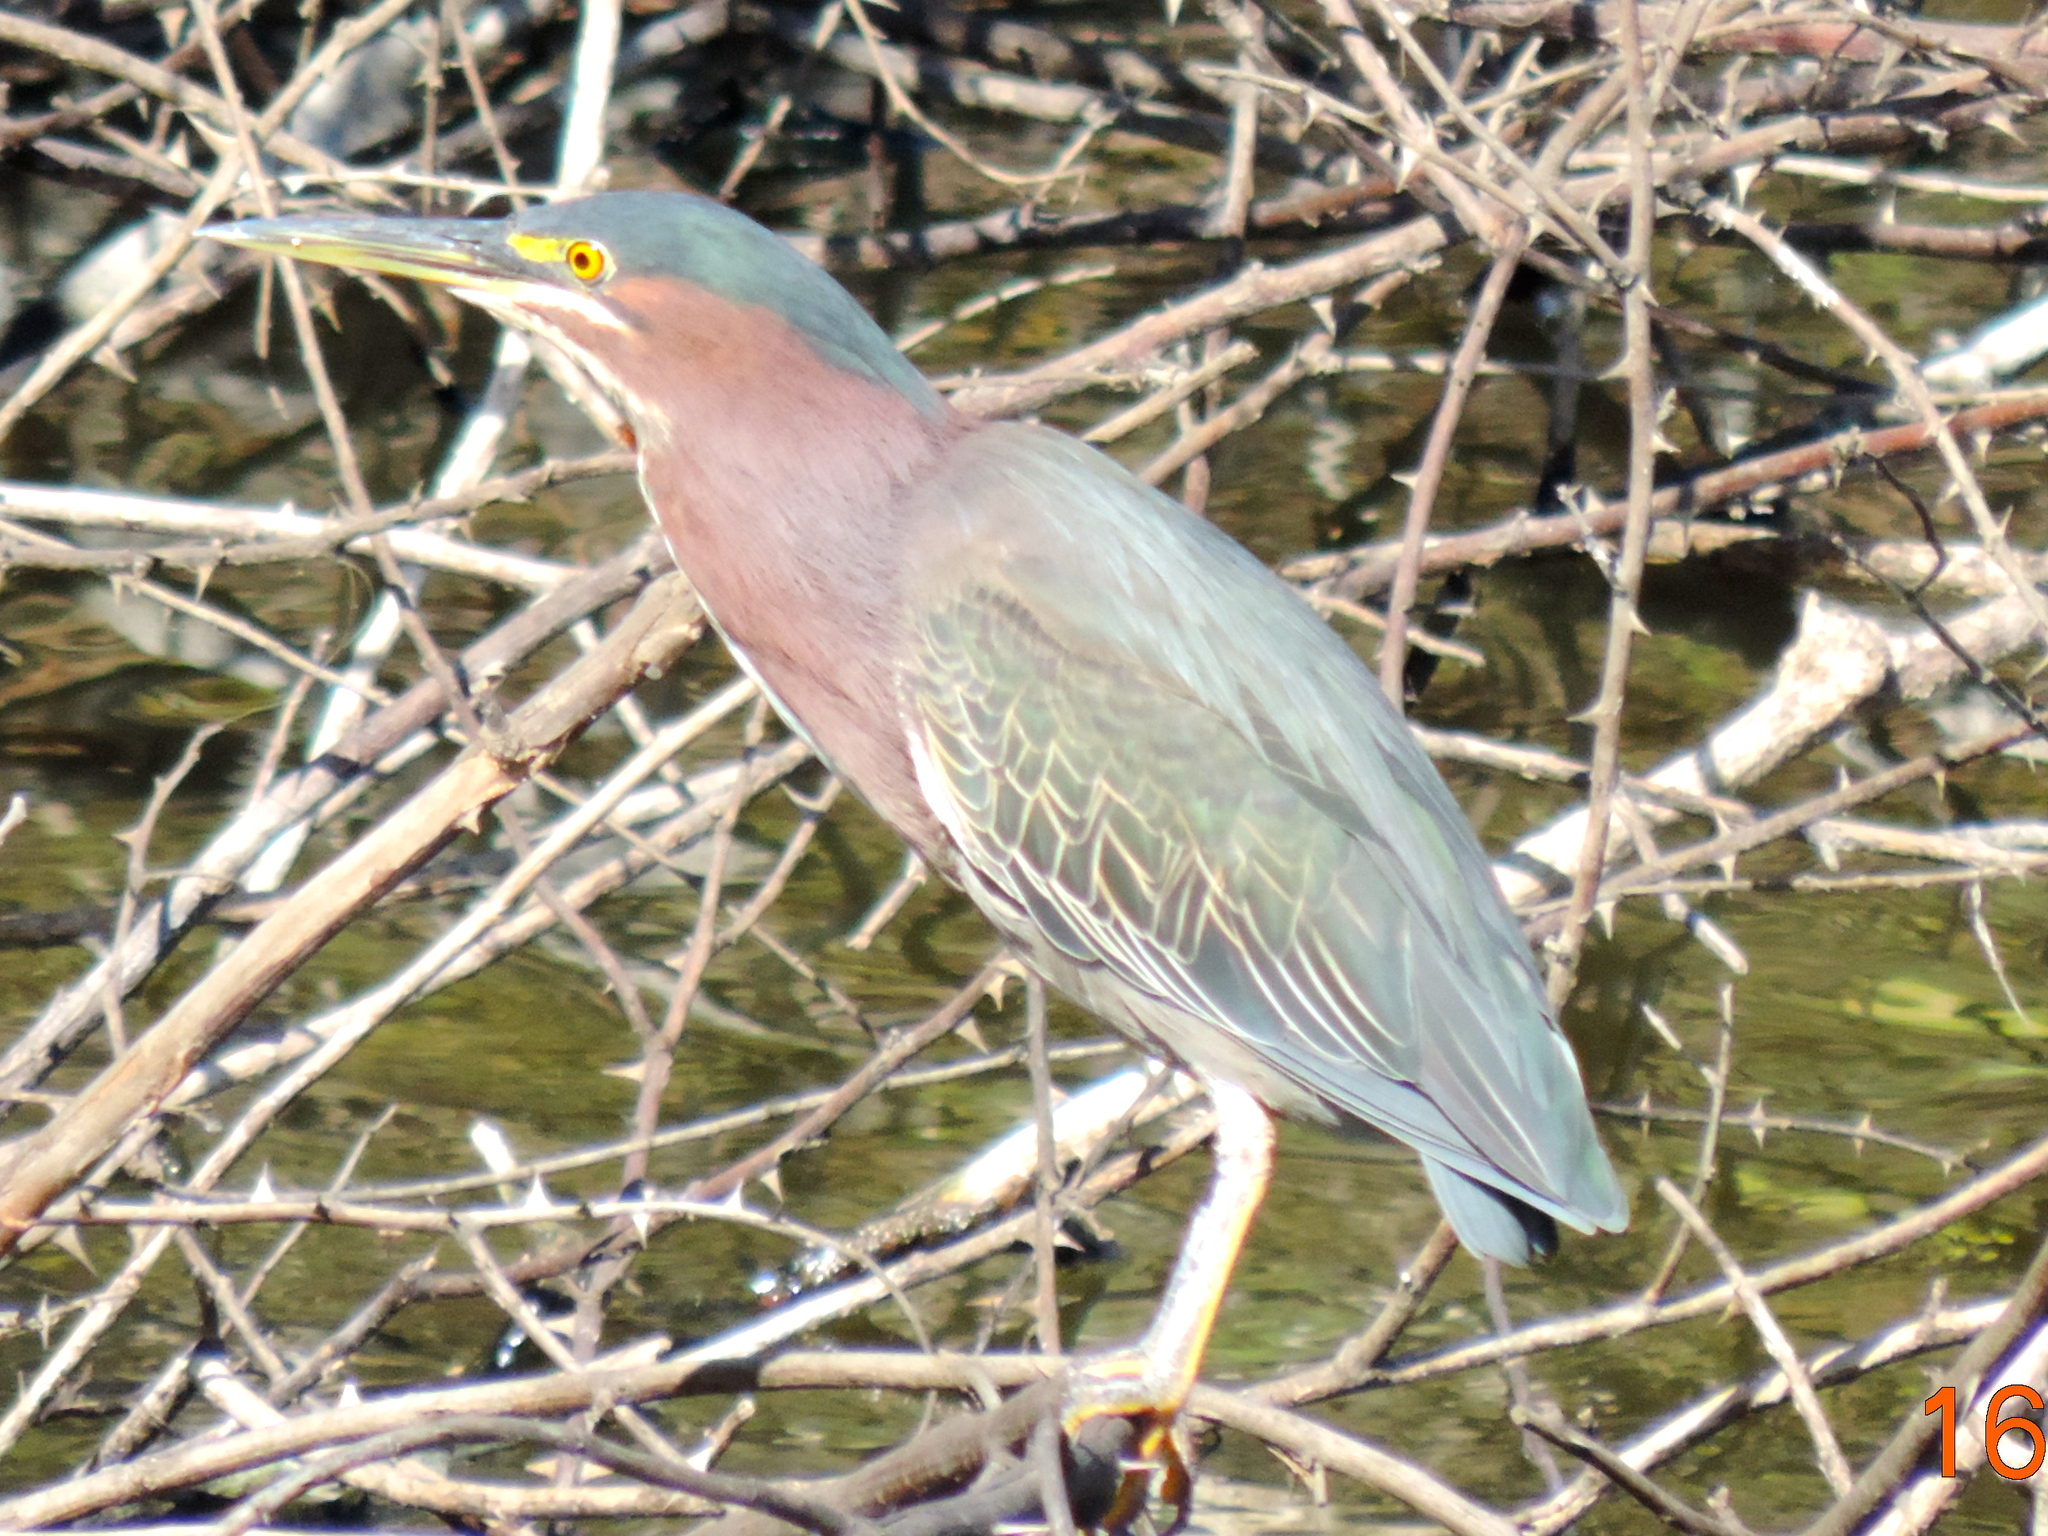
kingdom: Animalia
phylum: Chordata
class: Aves
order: Pelecaniformes
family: Ardeidae
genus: Butorides
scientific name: Butorides virescens
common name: Green heron
